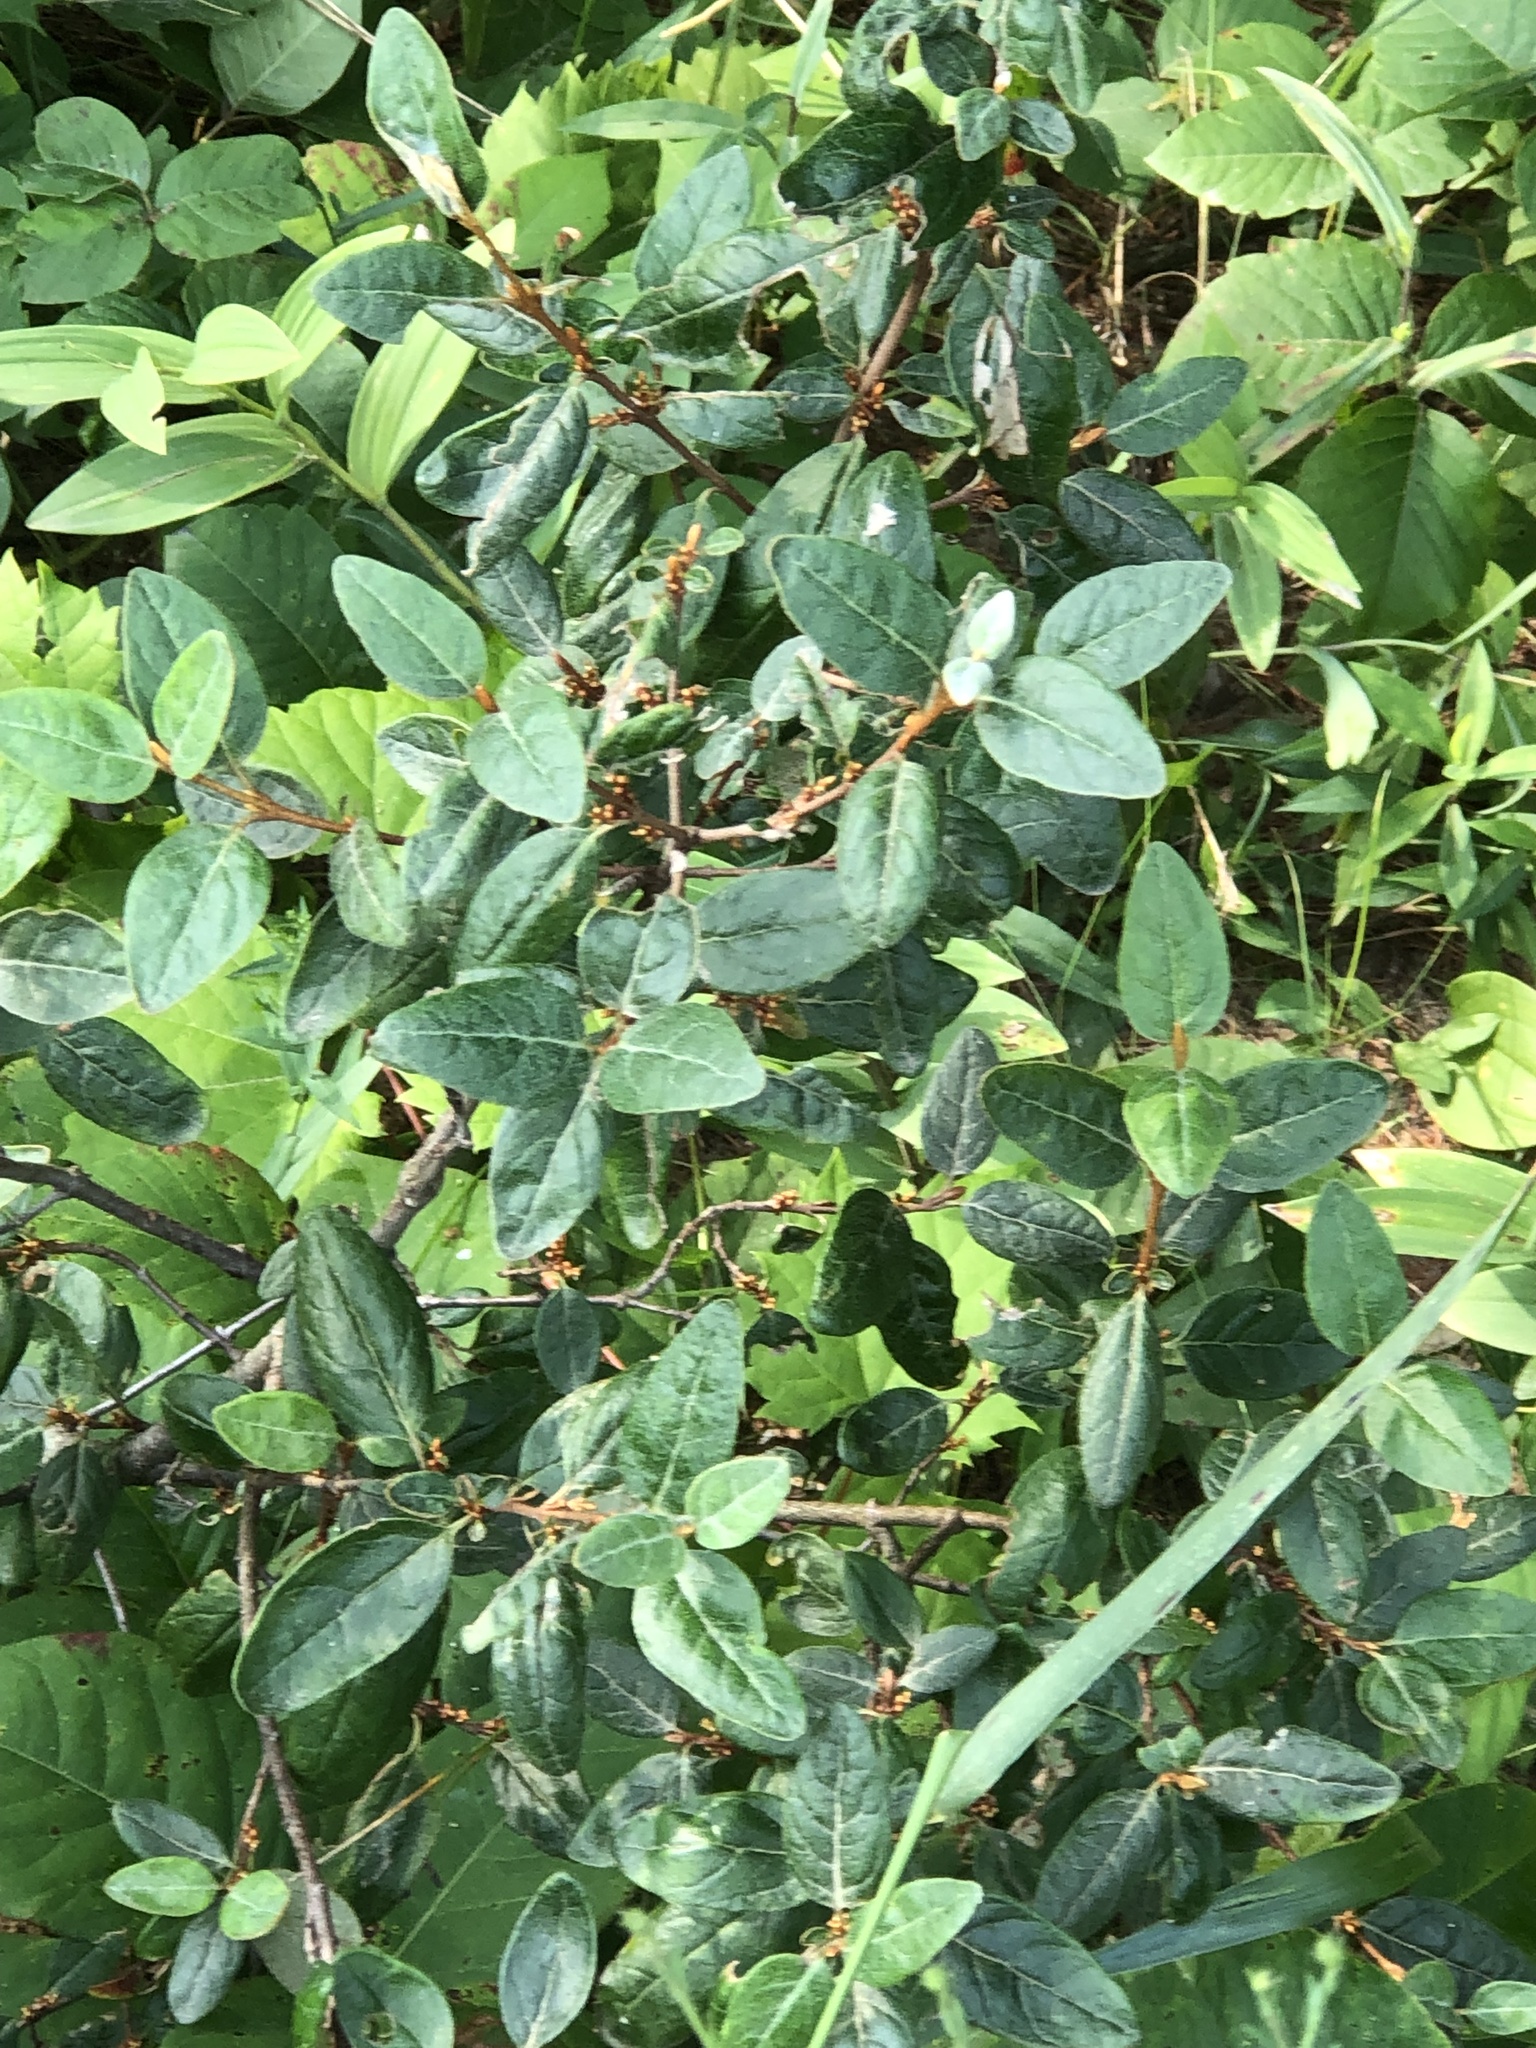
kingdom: Plantae
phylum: Tracheophyta
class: Magnoliopsida
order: Rosales
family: Elaeagnaceae
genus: Shepherdia
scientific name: Shepherdia canadensis
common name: Soapberry
